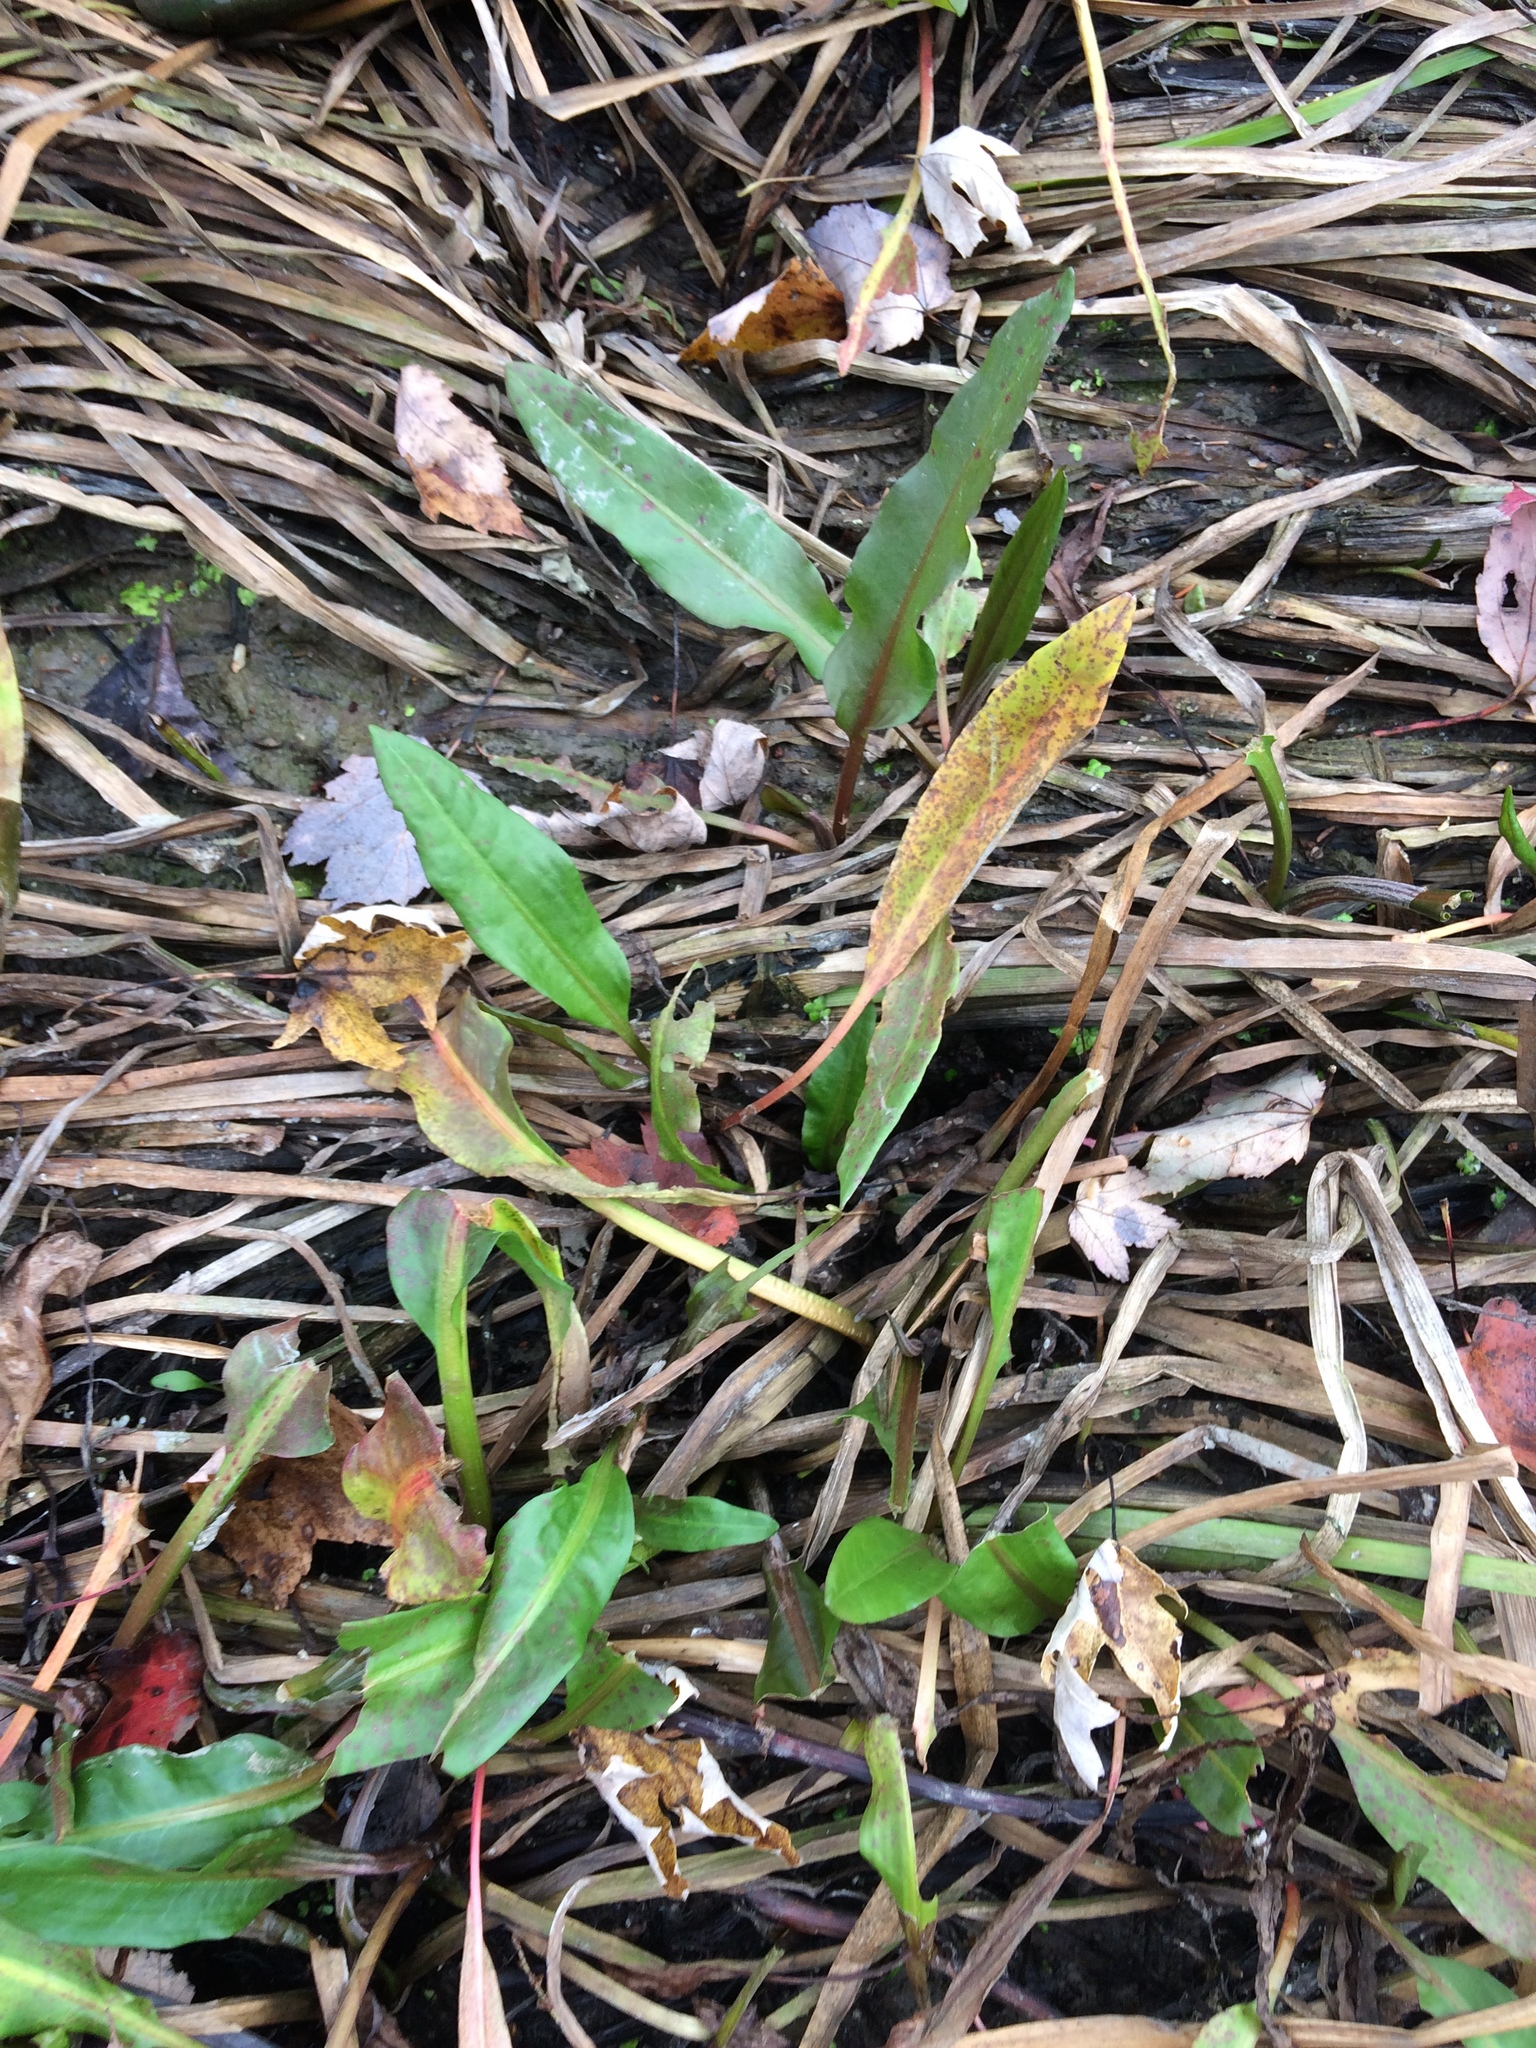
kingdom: Plantae
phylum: Tracheophyta
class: Magnoliopsida
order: Caryophyllales
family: Polygonaceae
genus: Rumex
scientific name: Rumex britannica
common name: British dock
